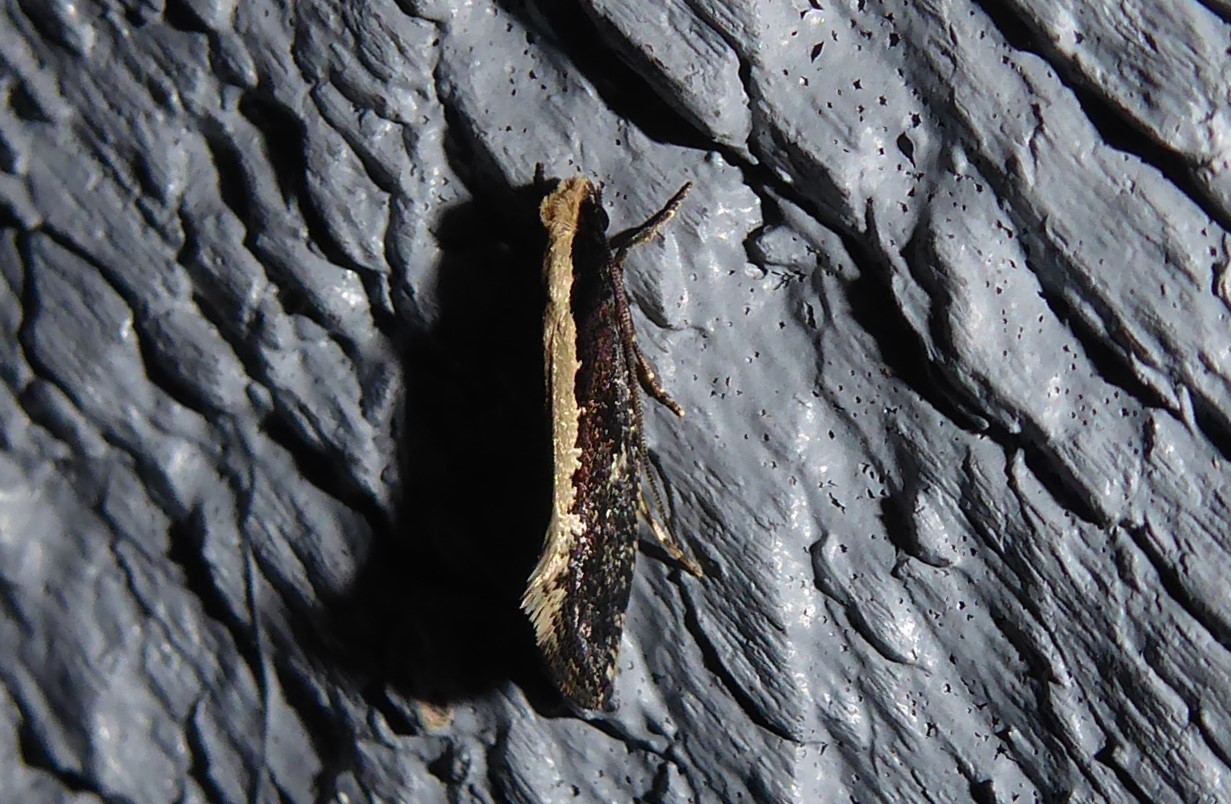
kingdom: Animalia
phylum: Arthropoda
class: Insecta
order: Lepidoptera
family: Tineidae
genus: Monopis
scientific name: Monopis ethelella
